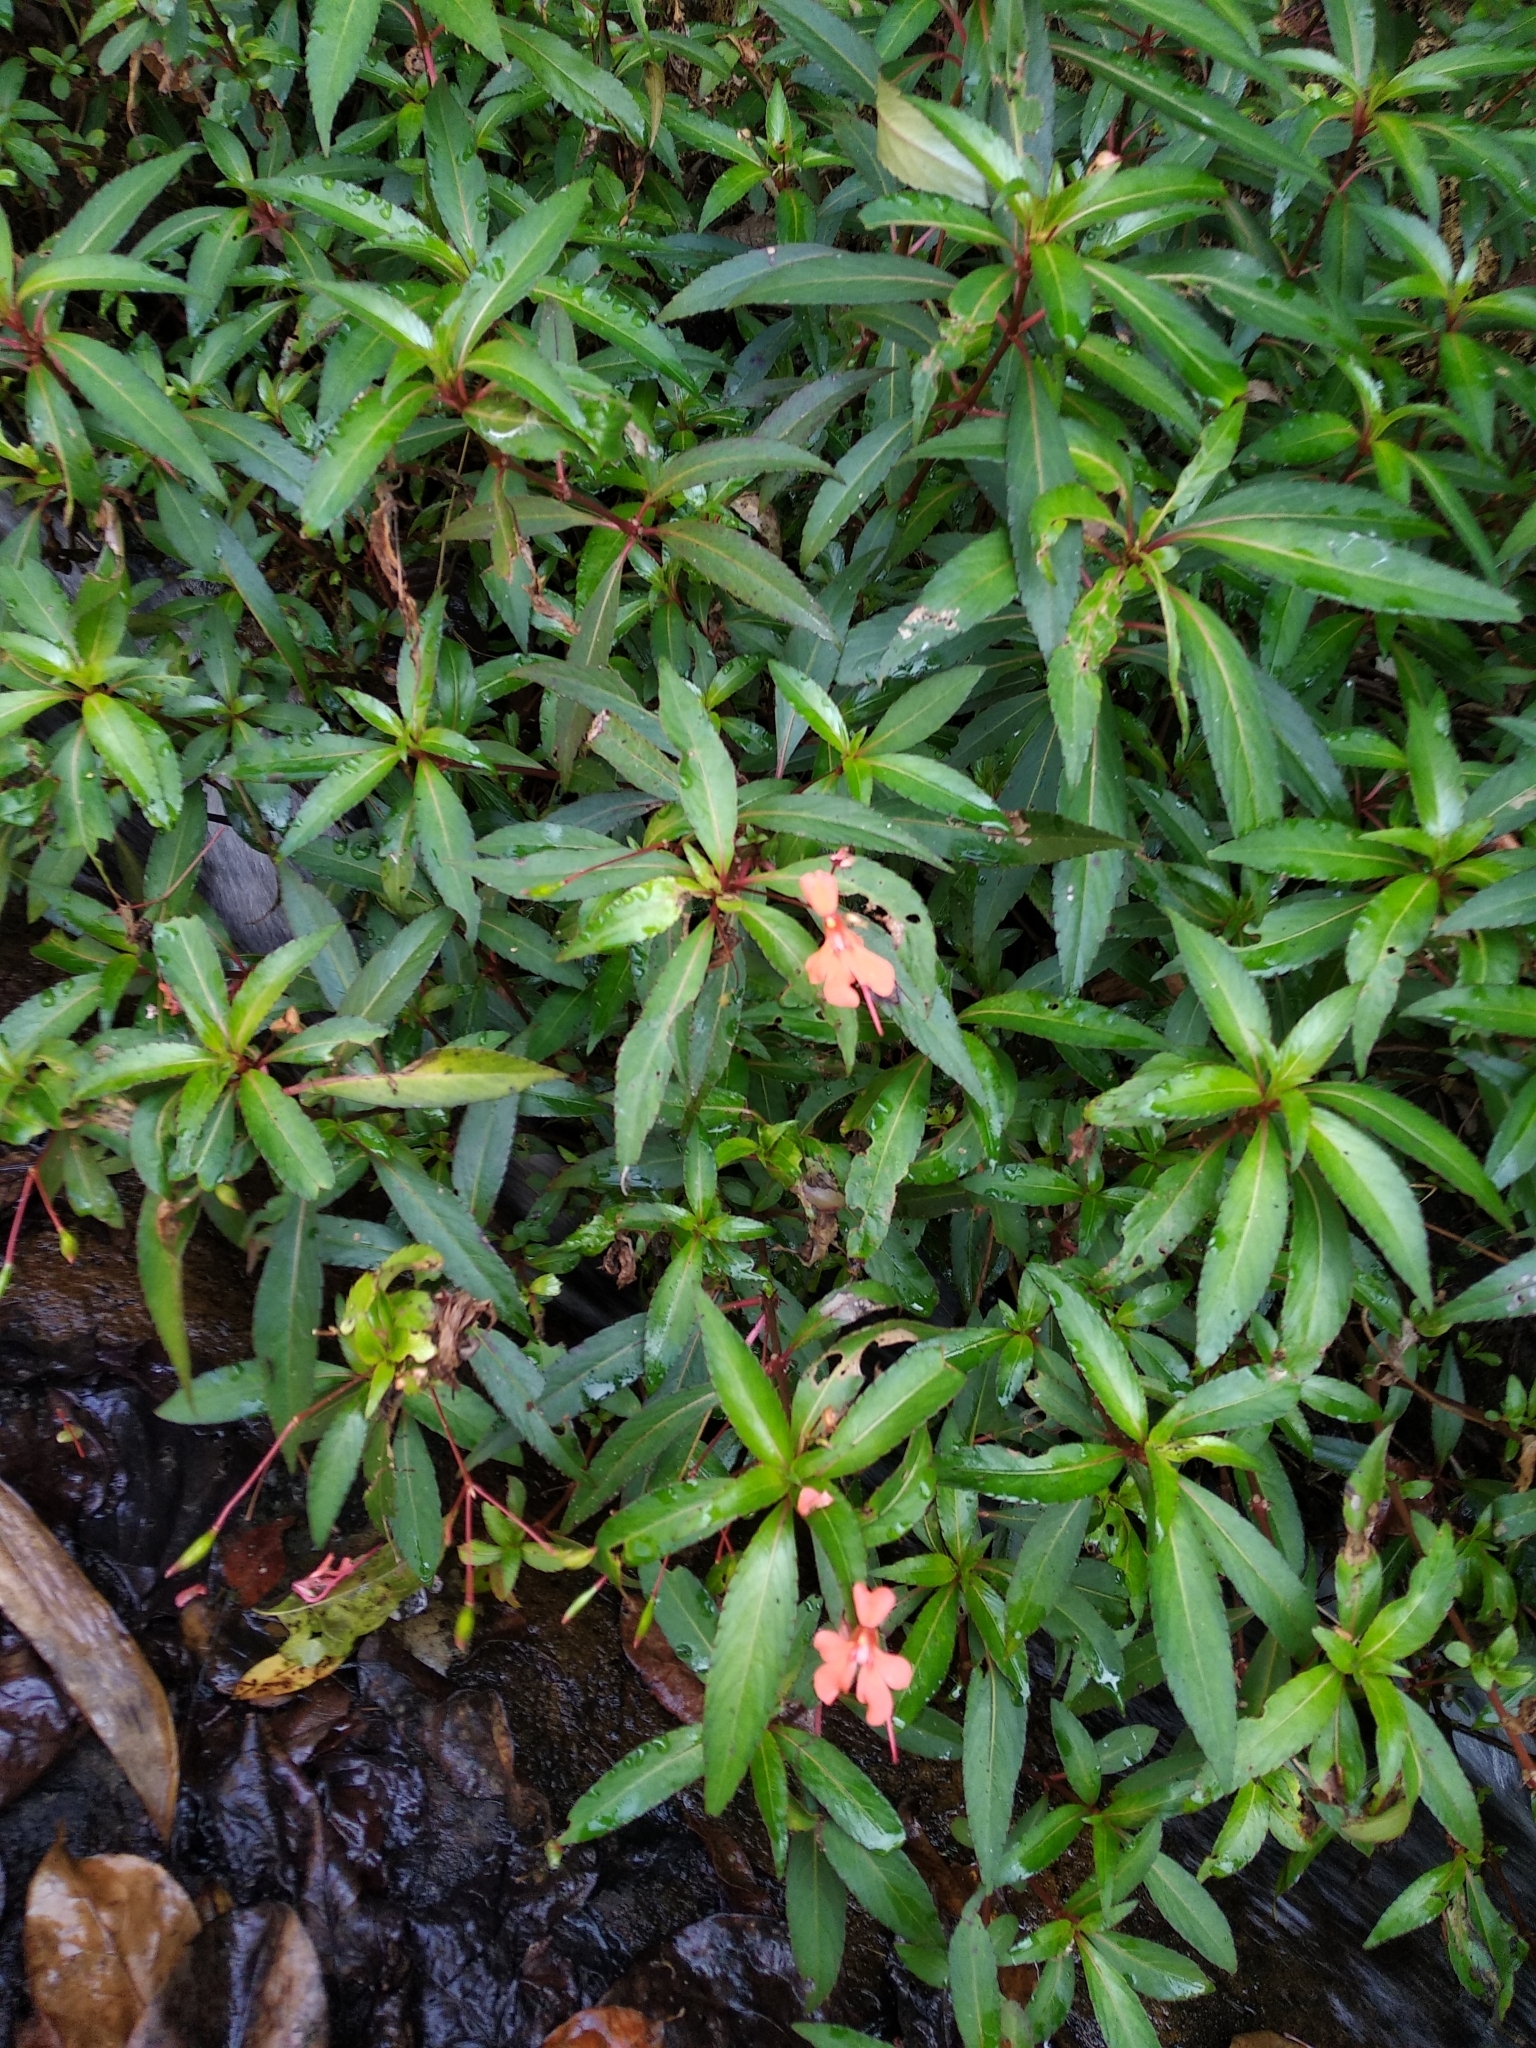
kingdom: Plantae
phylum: Tracheophyta
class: Magnoliopsida
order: Ericales
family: Balsaminaceae
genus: Impatiens
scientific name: Impatiens verticillata
